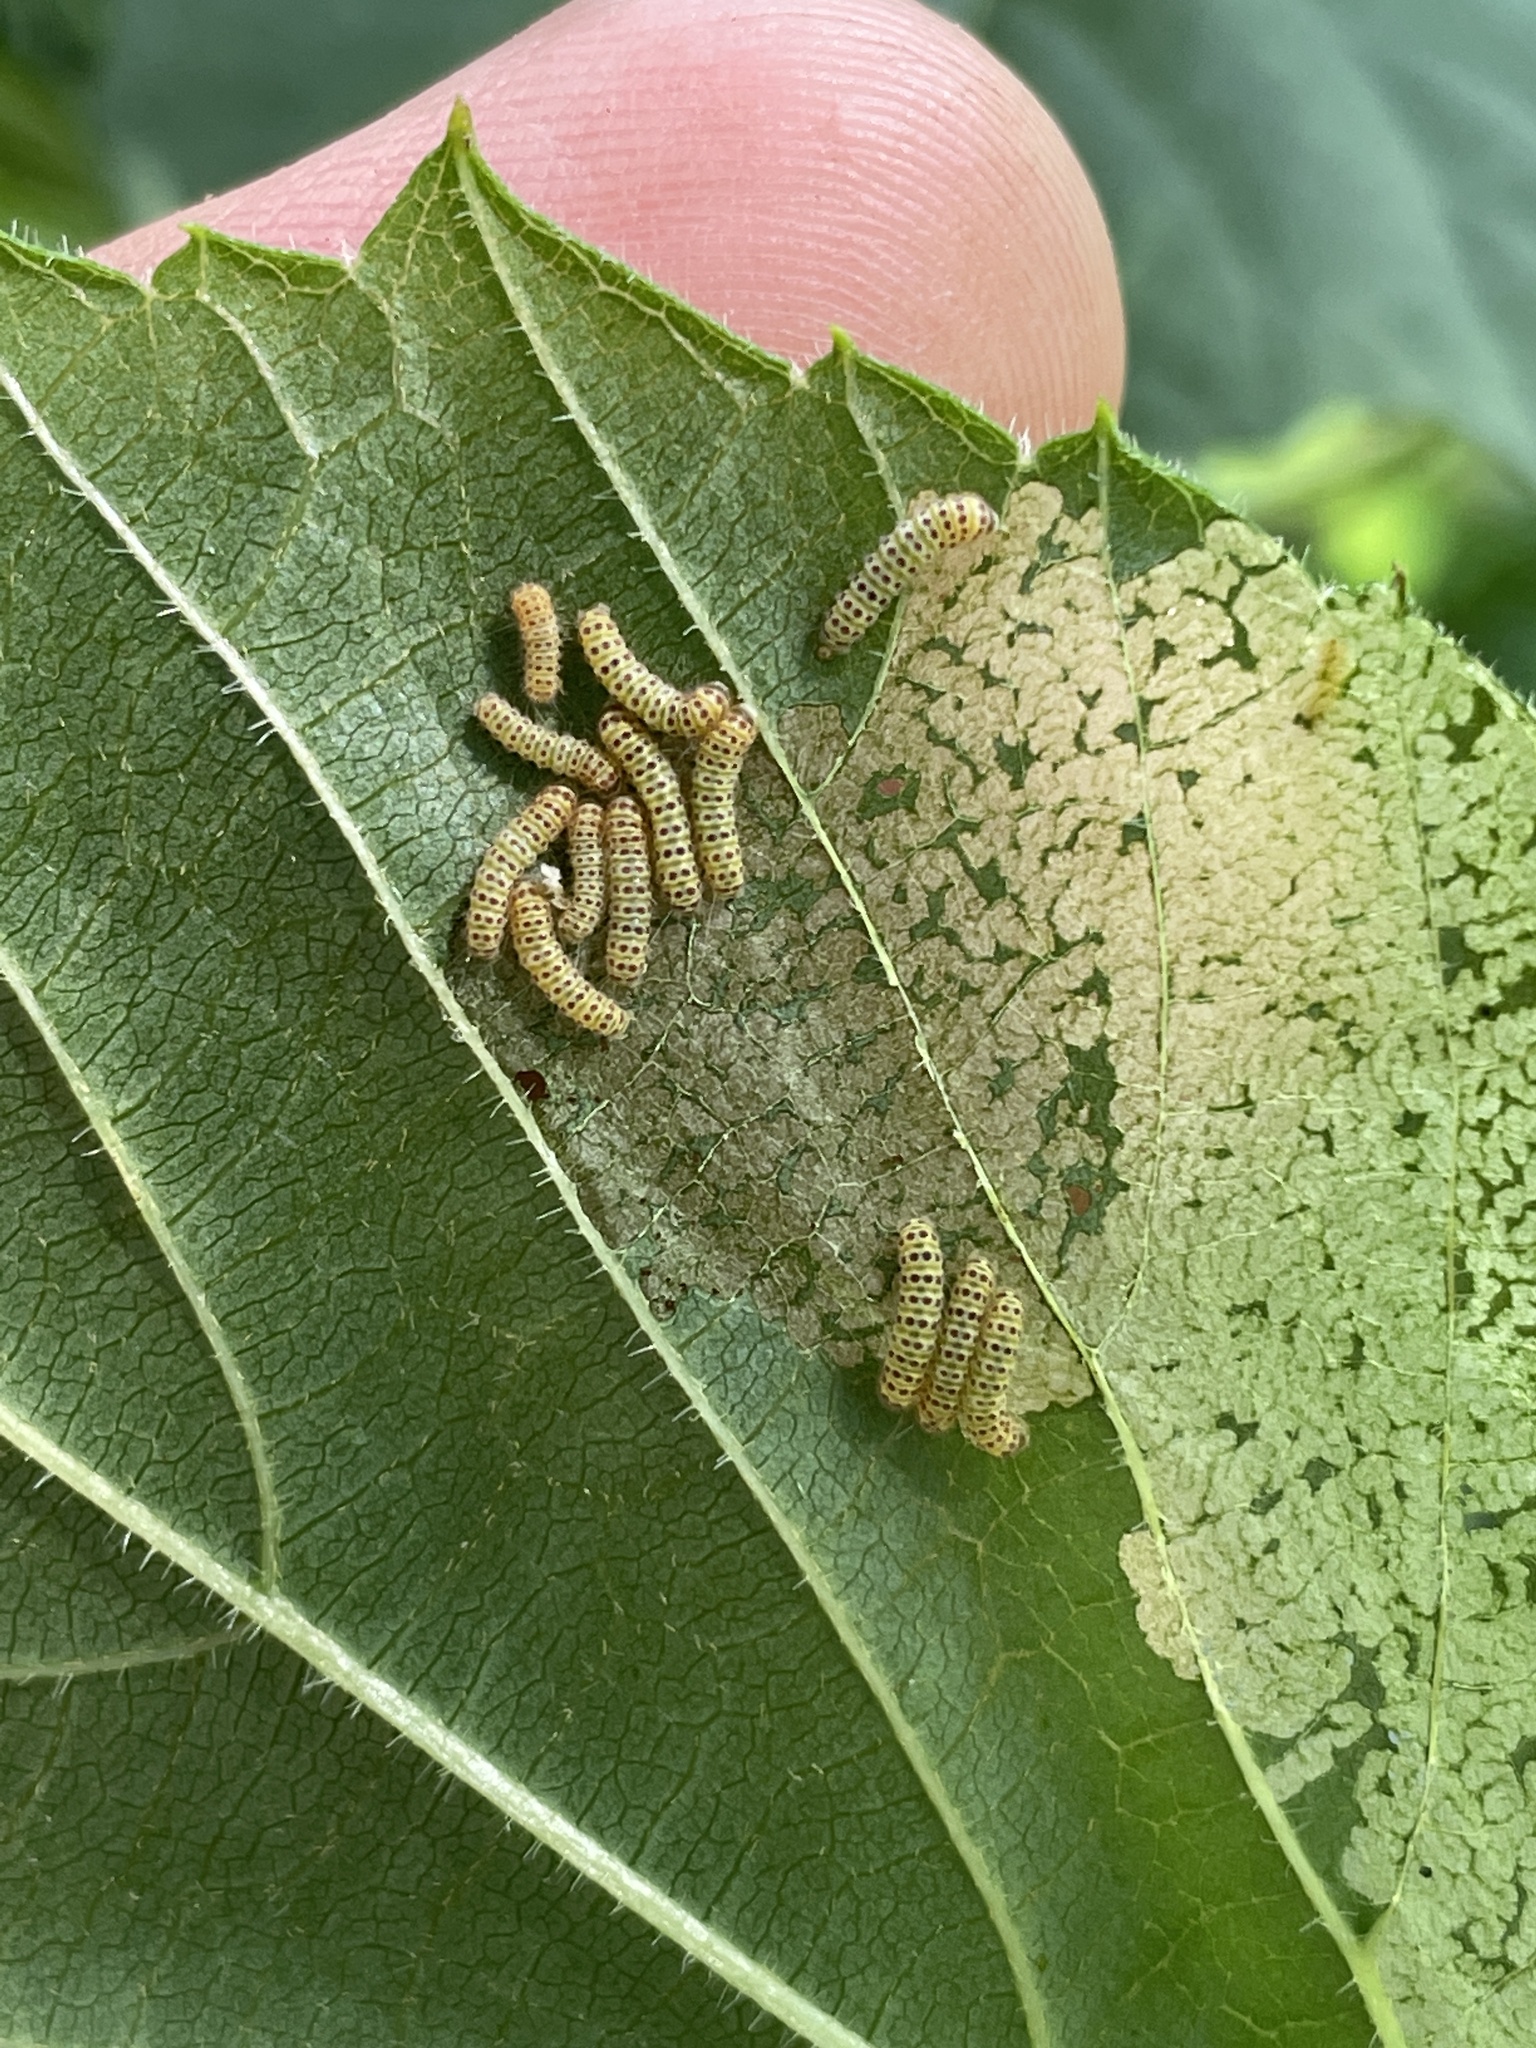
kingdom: Animalia
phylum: Arthropoda
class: Insecta
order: Lepidoptera
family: Zygaenidae
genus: Harrisina
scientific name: Harrisina americana
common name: Grapeleaf skeletonizer moth
